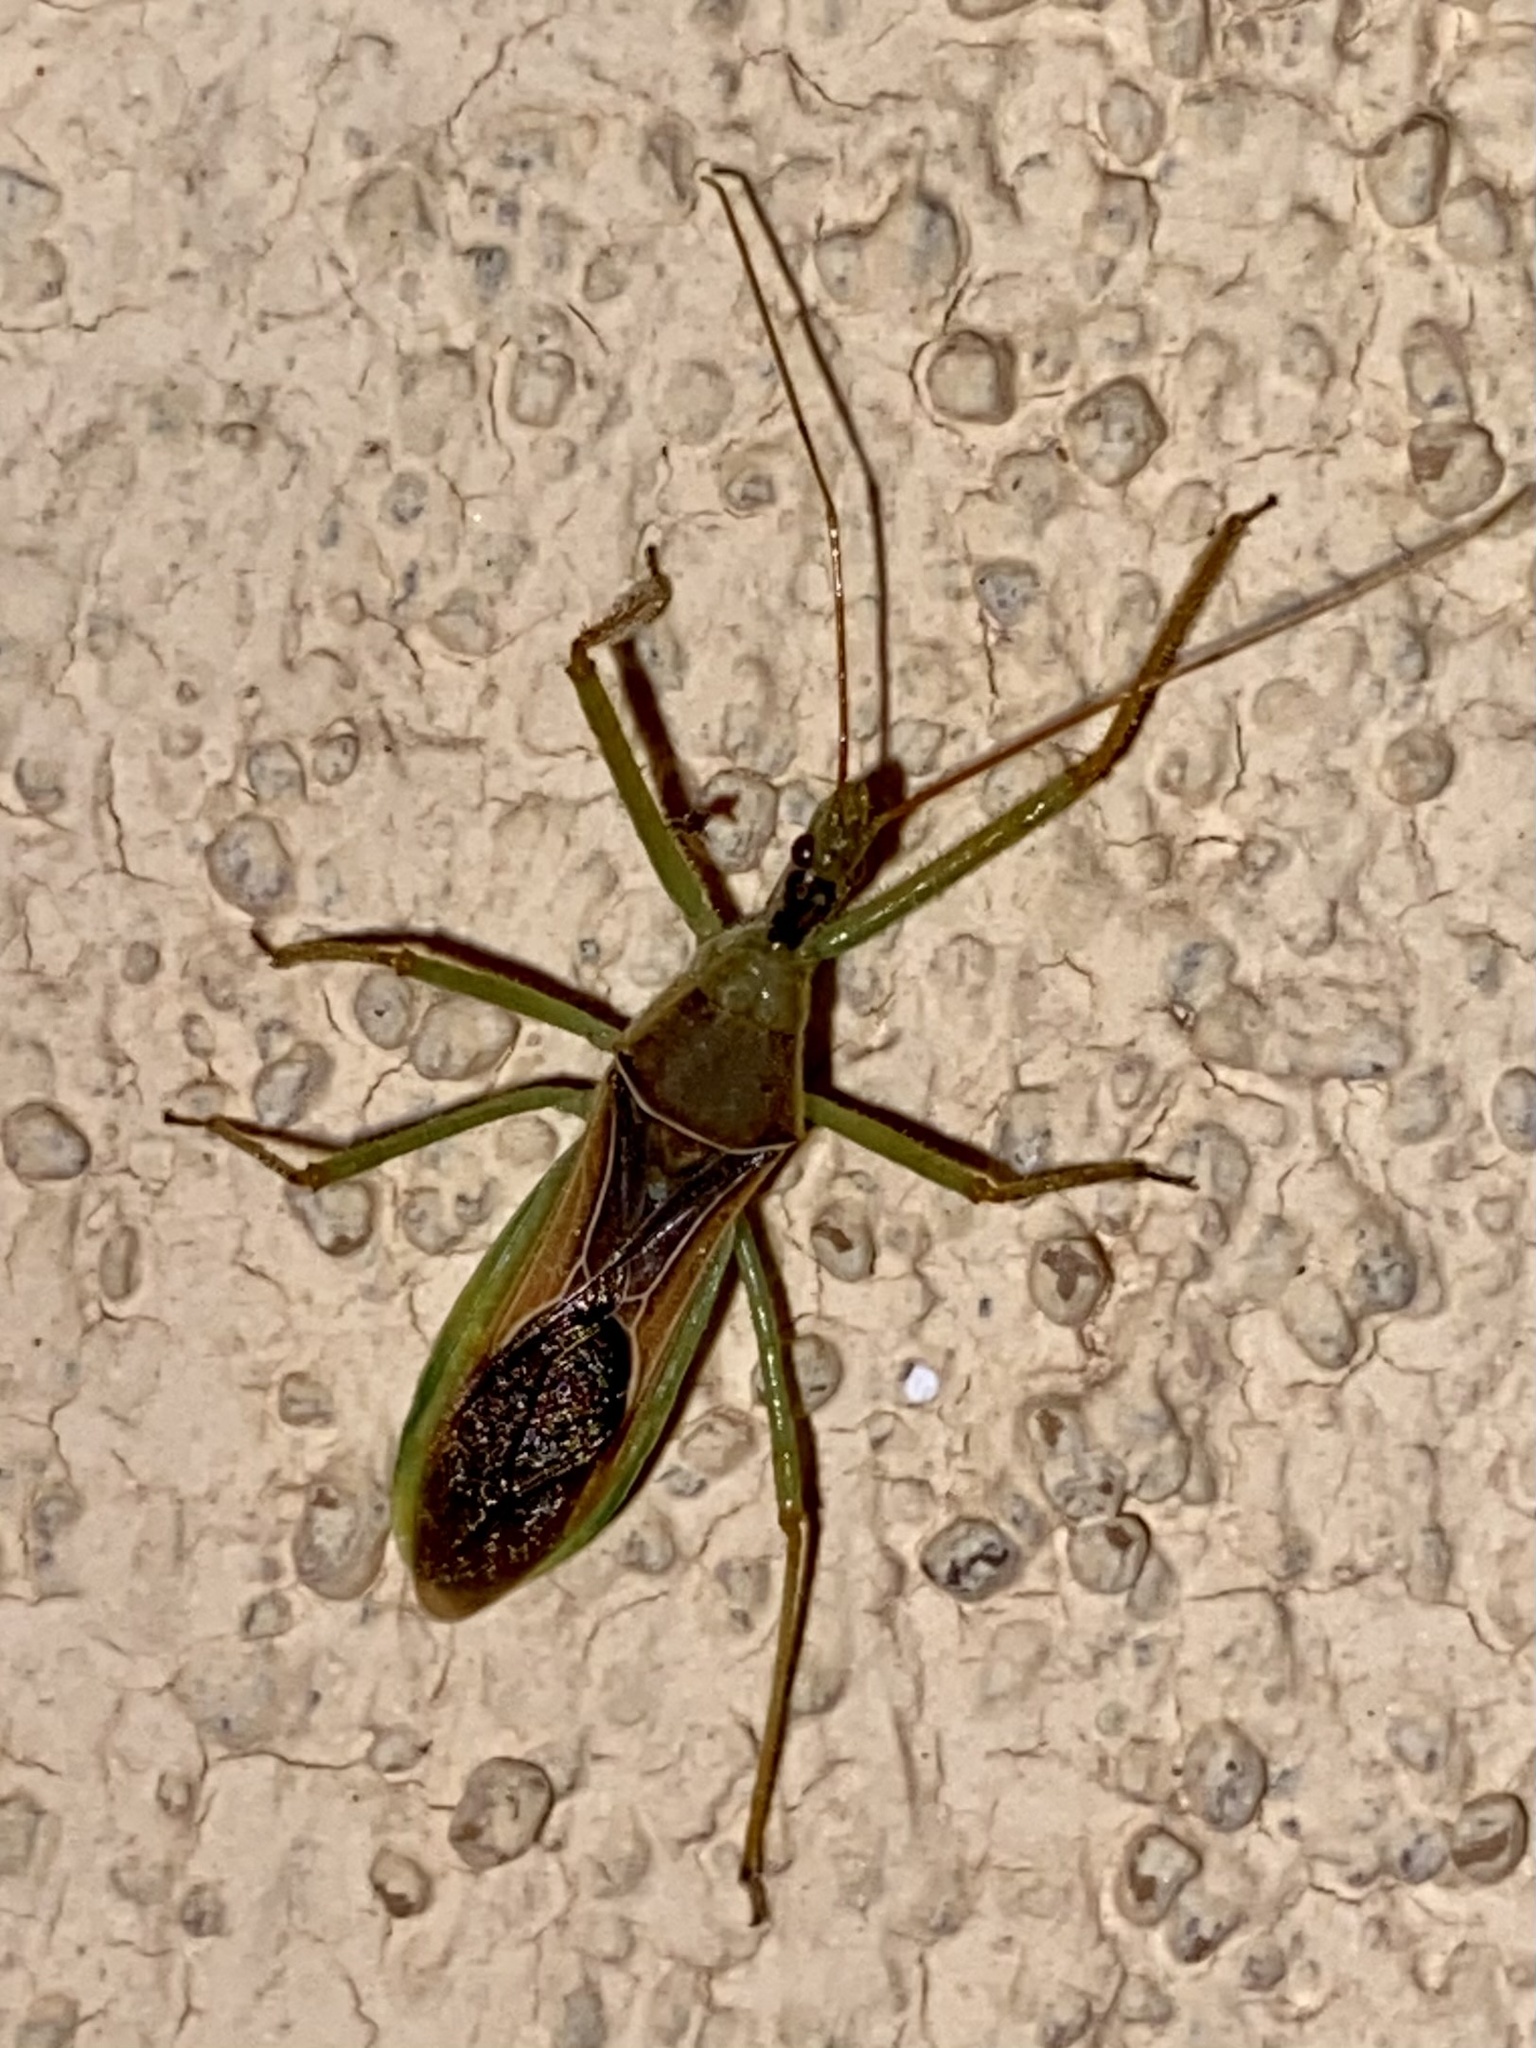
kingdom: Animalia
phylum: Arthropoda
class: Insecta
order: Hemiptera
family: Reduviidae
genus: Zelus
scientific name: Zelus renardii
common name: Assassin bug
